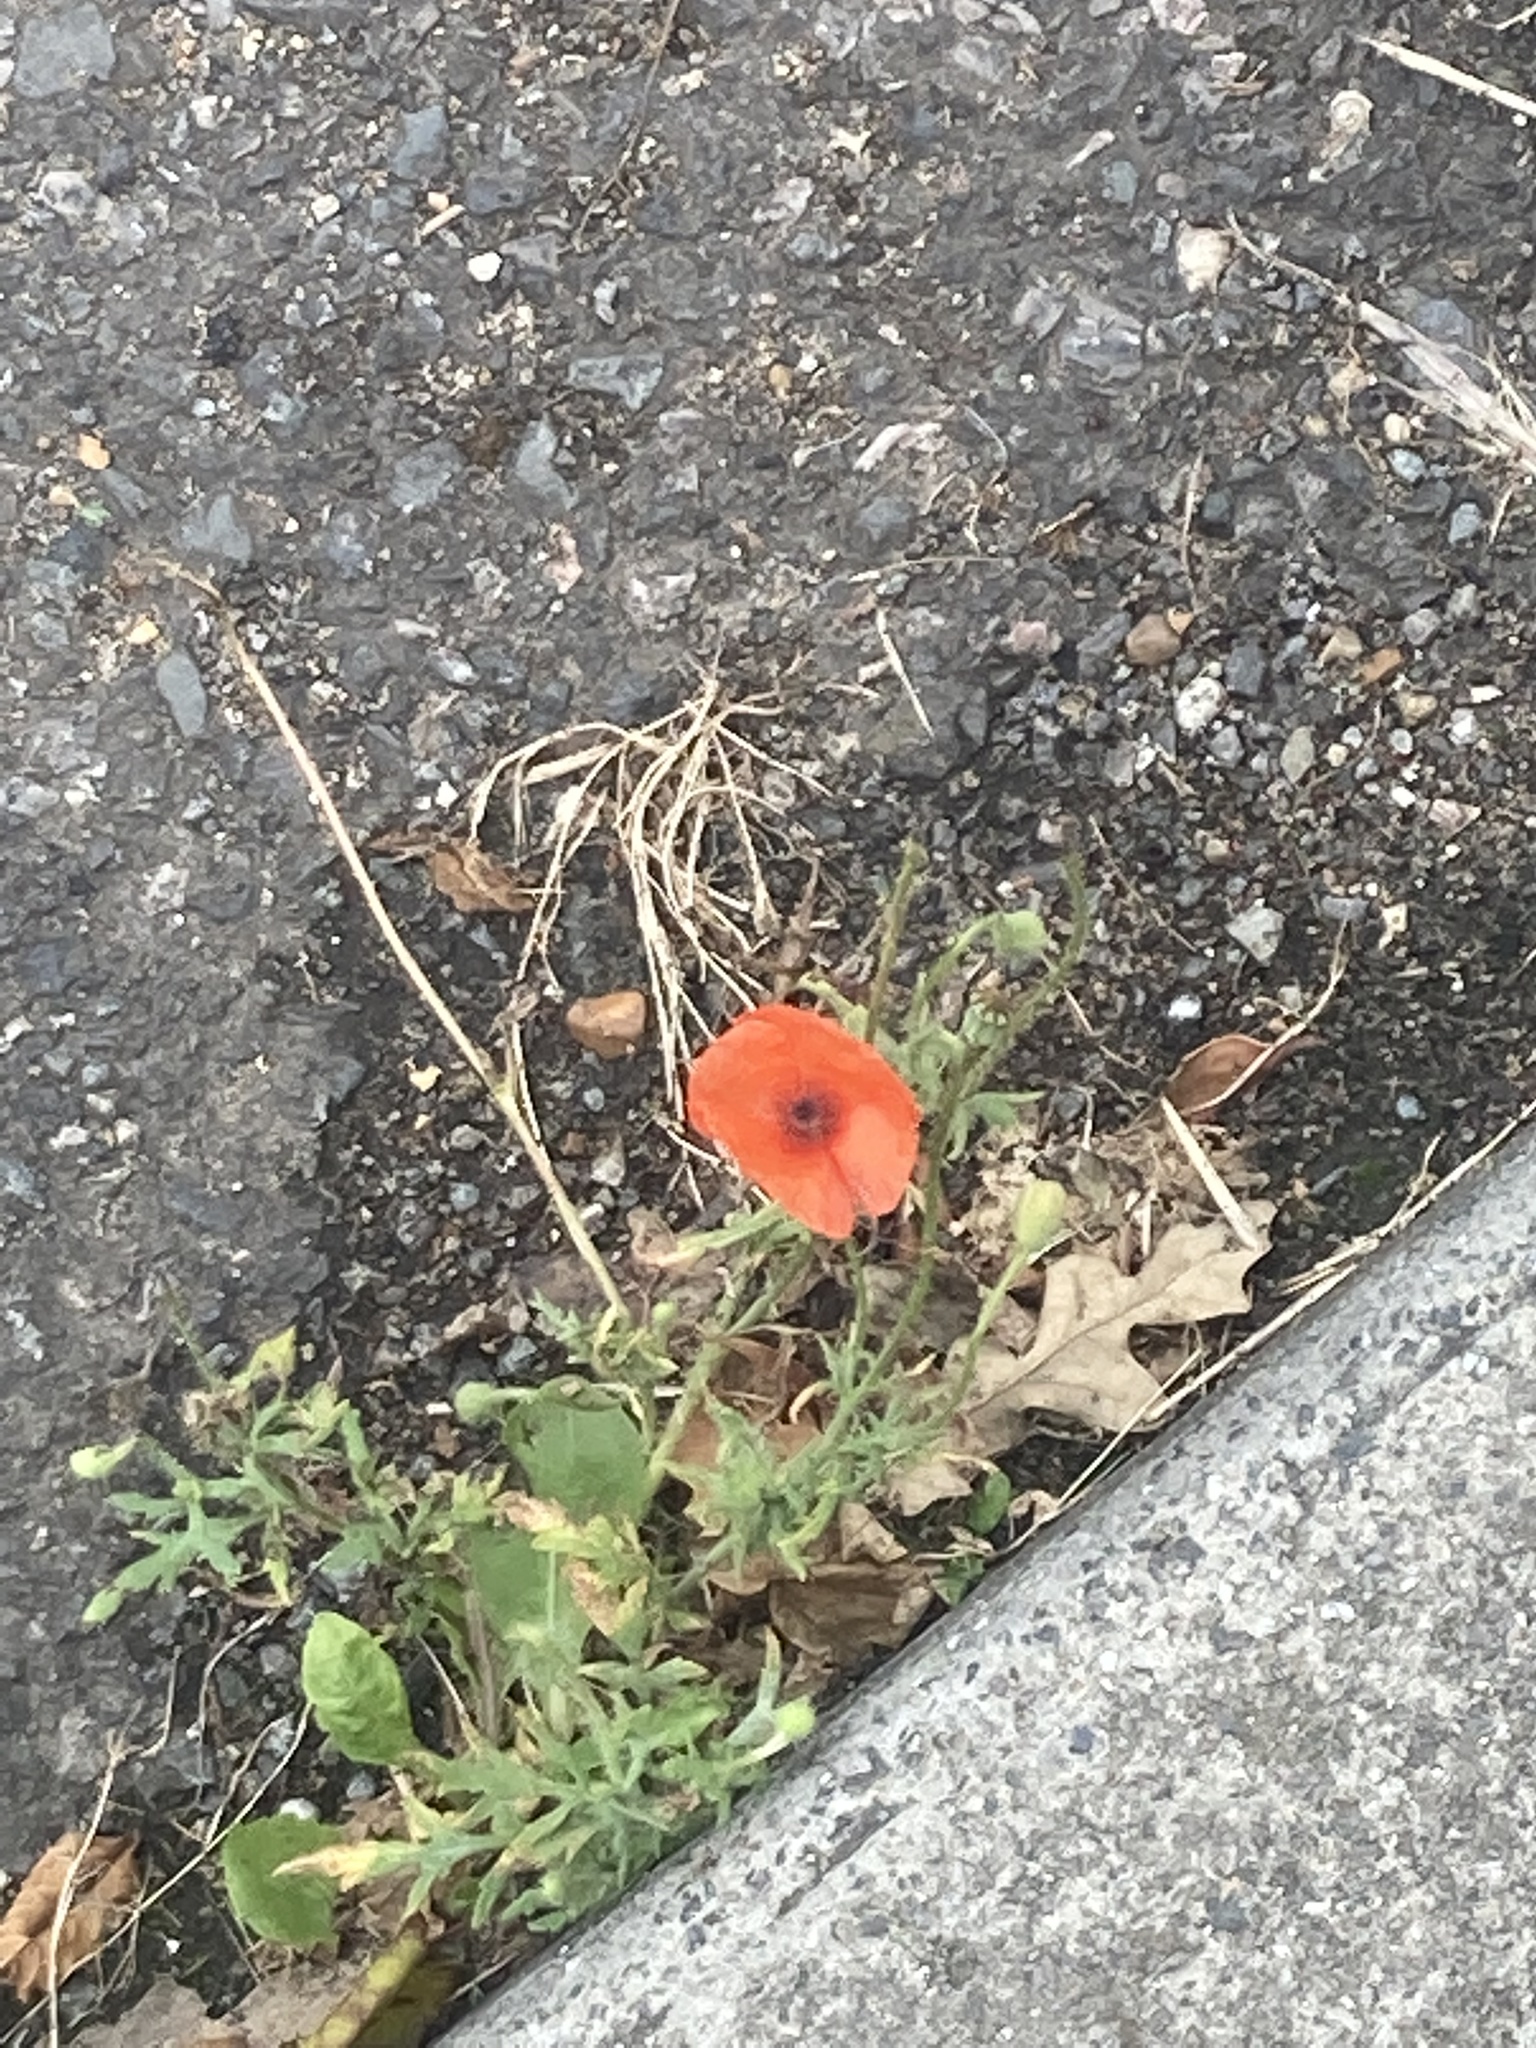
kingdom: Plantae
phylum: Tracheophyta
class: Magnoliopsida
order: Ranunculales
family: Papaveraceae
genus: Papaver
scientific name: Papaver rhoeas
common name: Corn poppy
